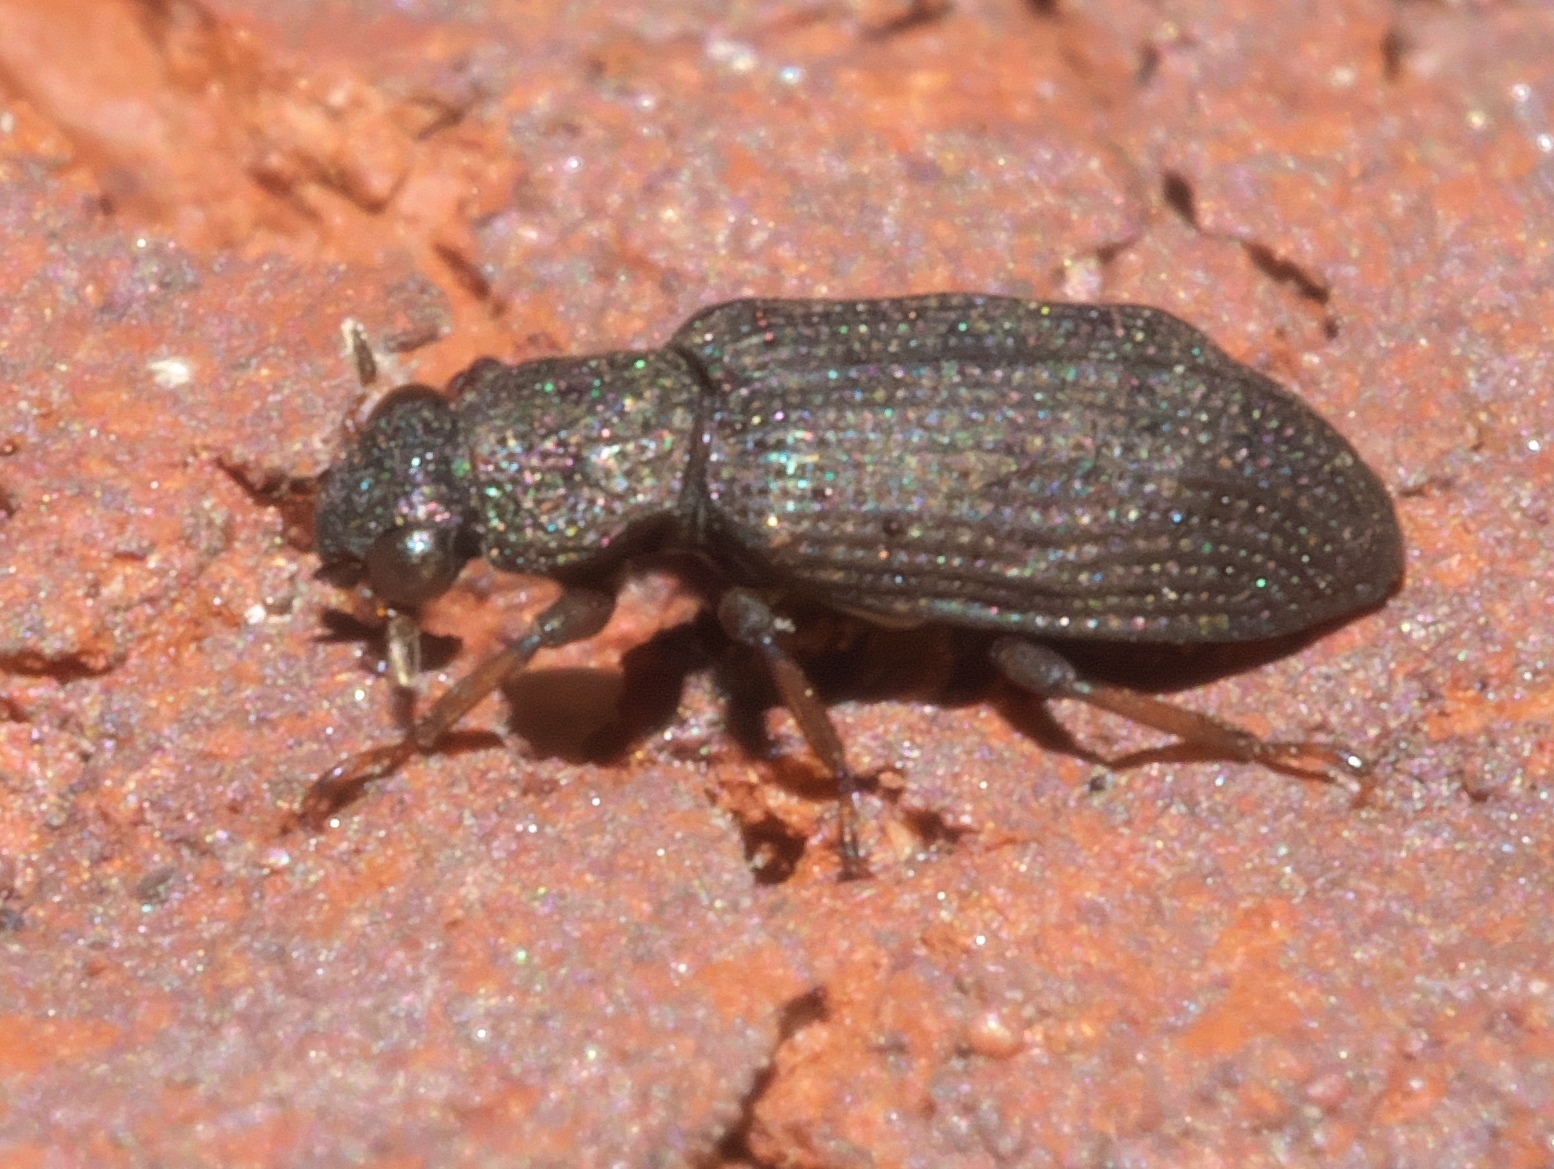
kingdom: Animalia
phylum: Arthropoda
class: Insecta
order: Coleoptera
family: Hydrochidae
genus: Hydrochus
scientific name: Hydrochus
